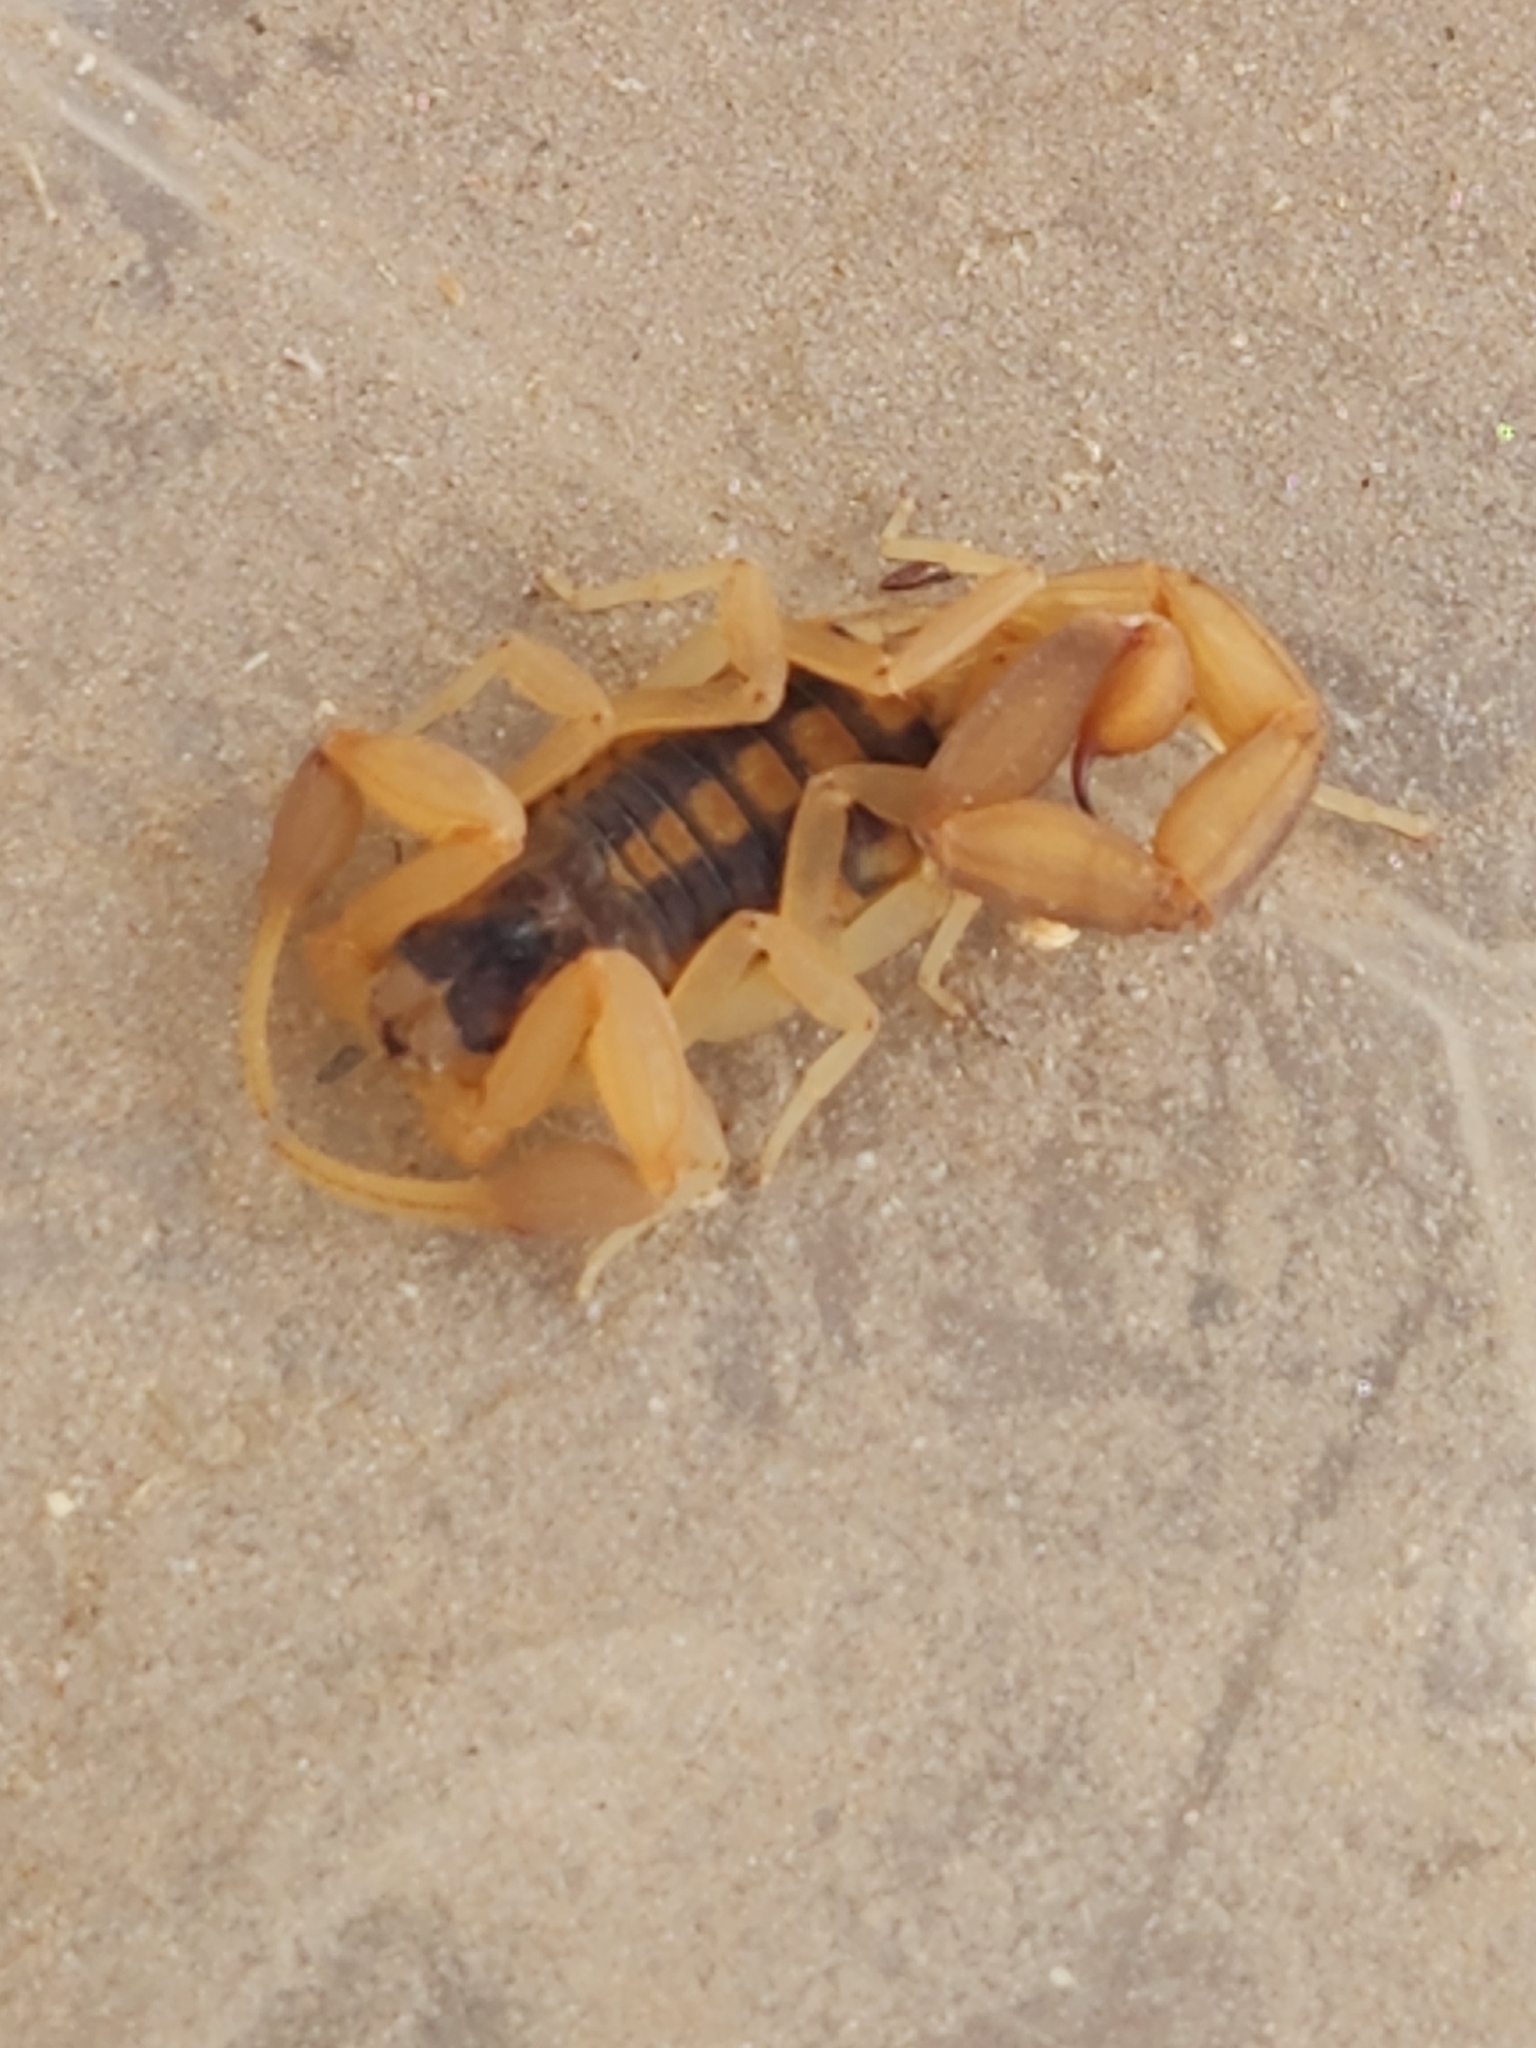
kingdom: Animalia
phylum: Arthropoda
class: Arachnida
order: Scorpiones
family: Buthidae
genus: Centruroides
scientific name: Centruroides vittatus
